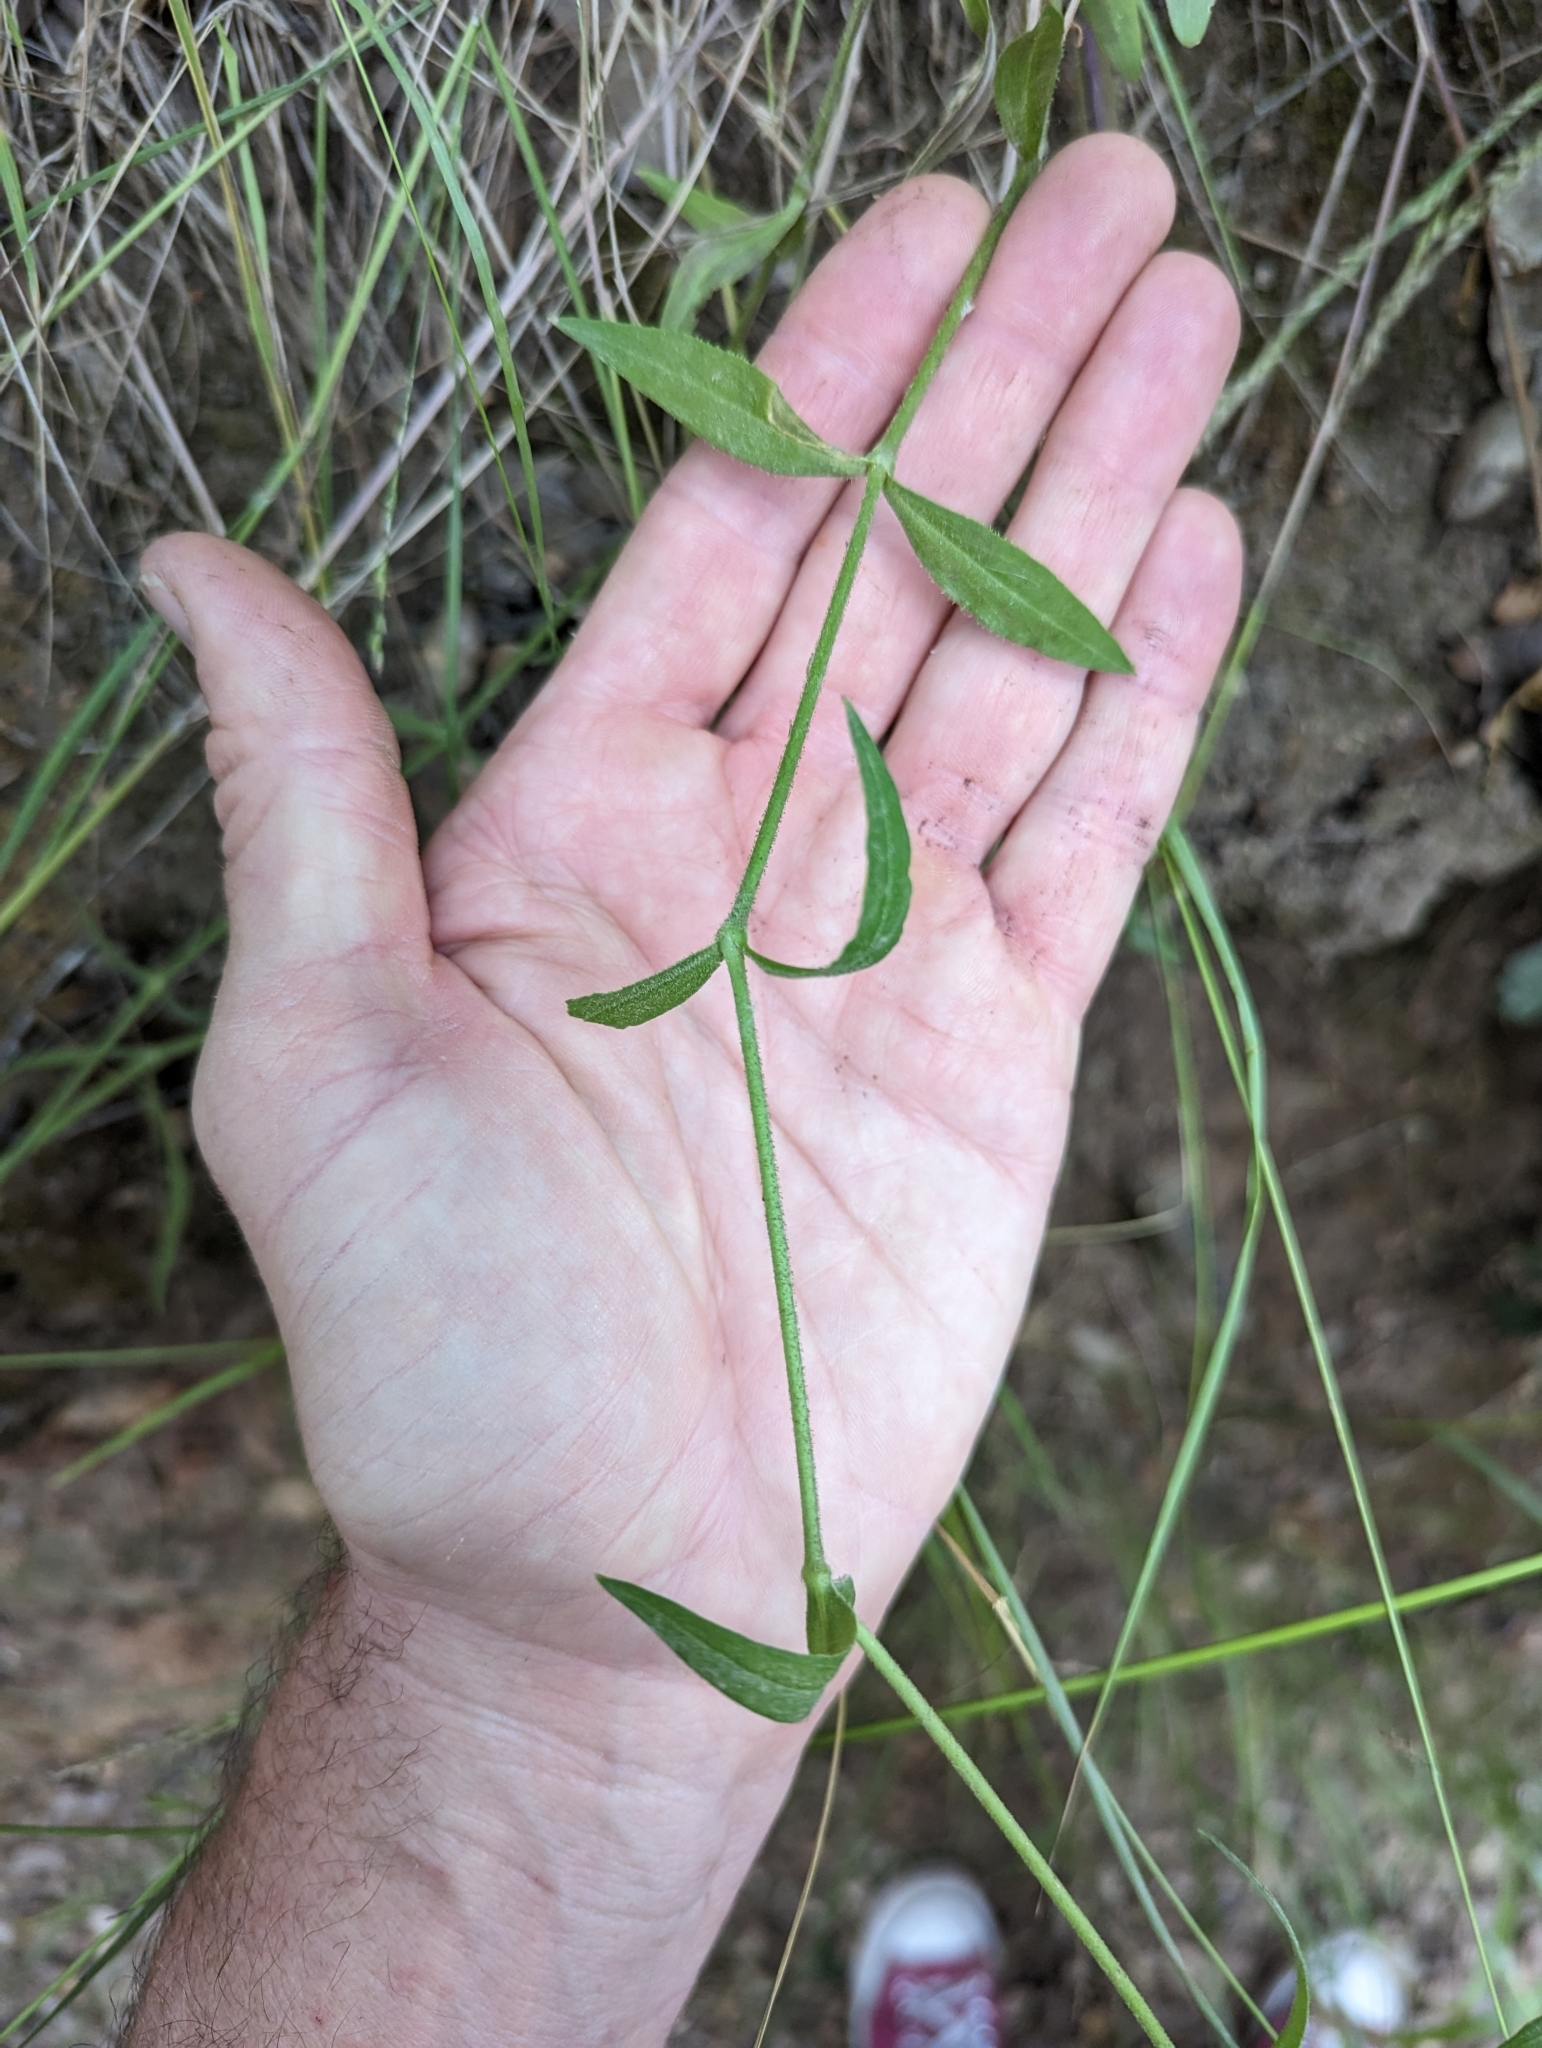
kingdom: Plantae
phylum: Tracheophyta
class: Magnoliopsida
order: Caryophyllales
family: Caryophyllaceae
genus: Silene
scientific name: Silene laciniata
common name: Indian-pink
